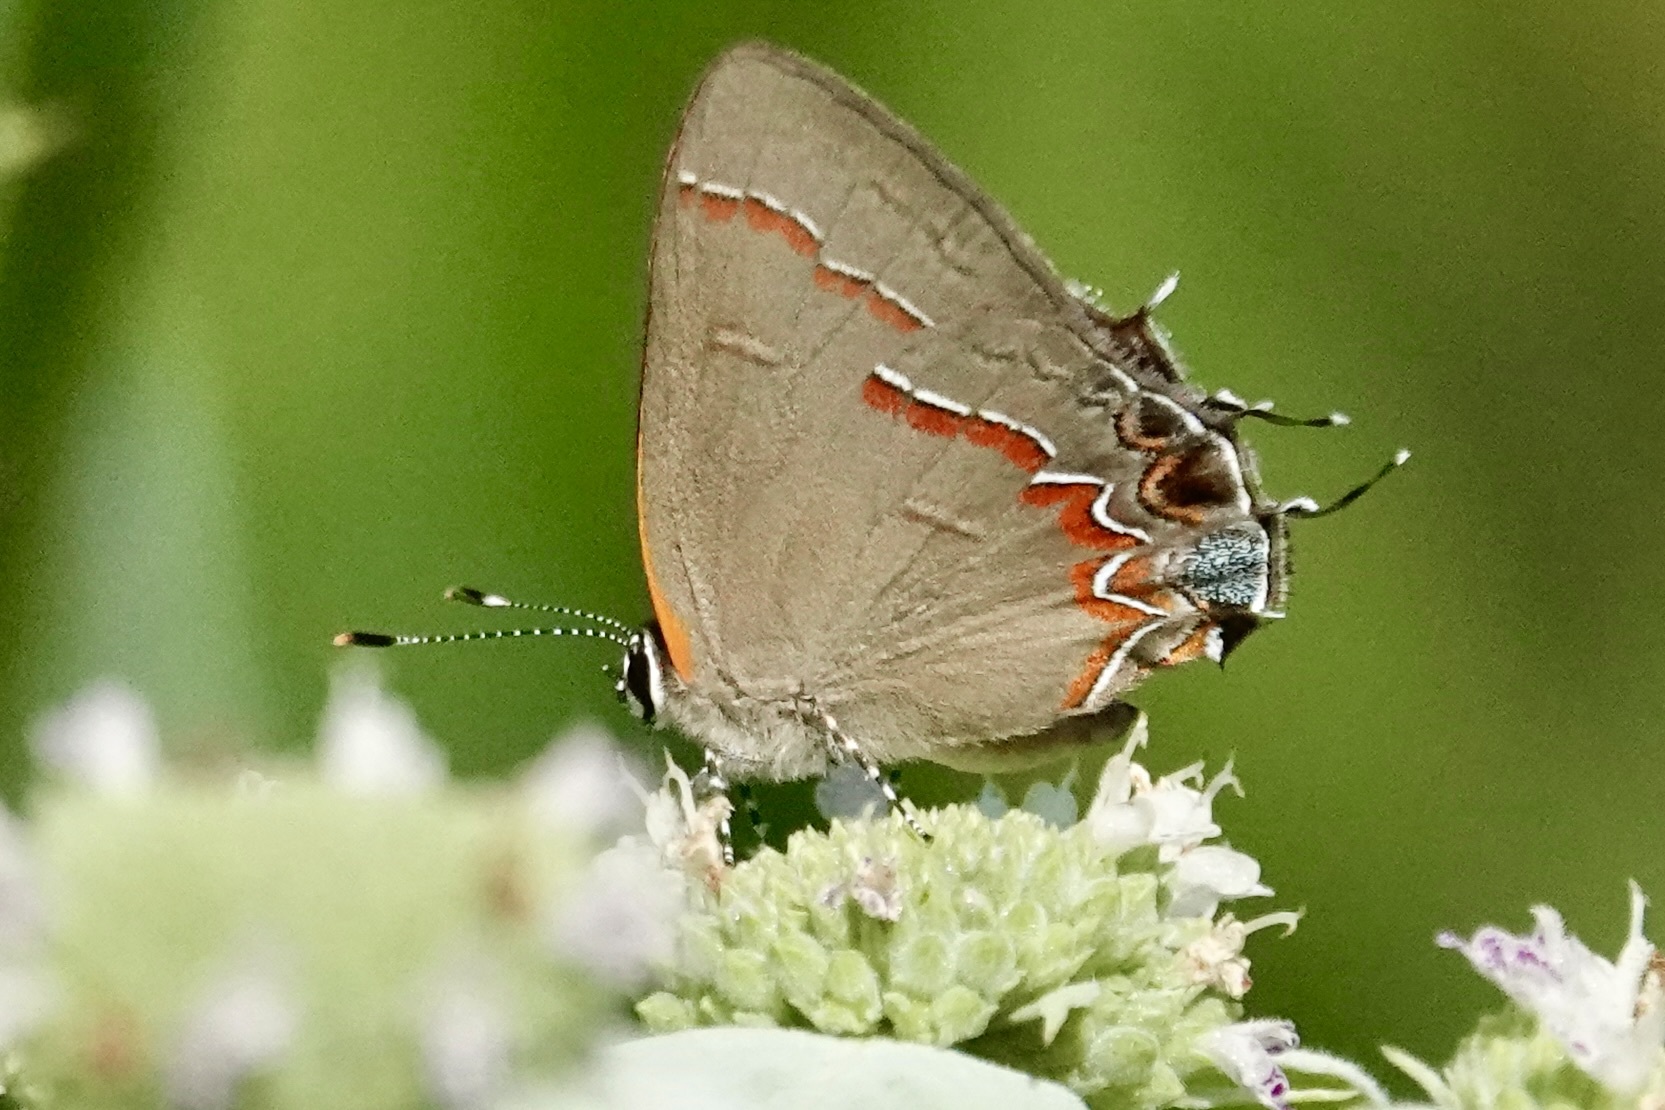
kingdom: Animalia
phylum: Arthropoda
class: Insecta
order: Lepidoptera
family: Lycaenidae
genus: Calycopis
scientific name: Calycopis cecrops
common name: Red-banded hairstreak
